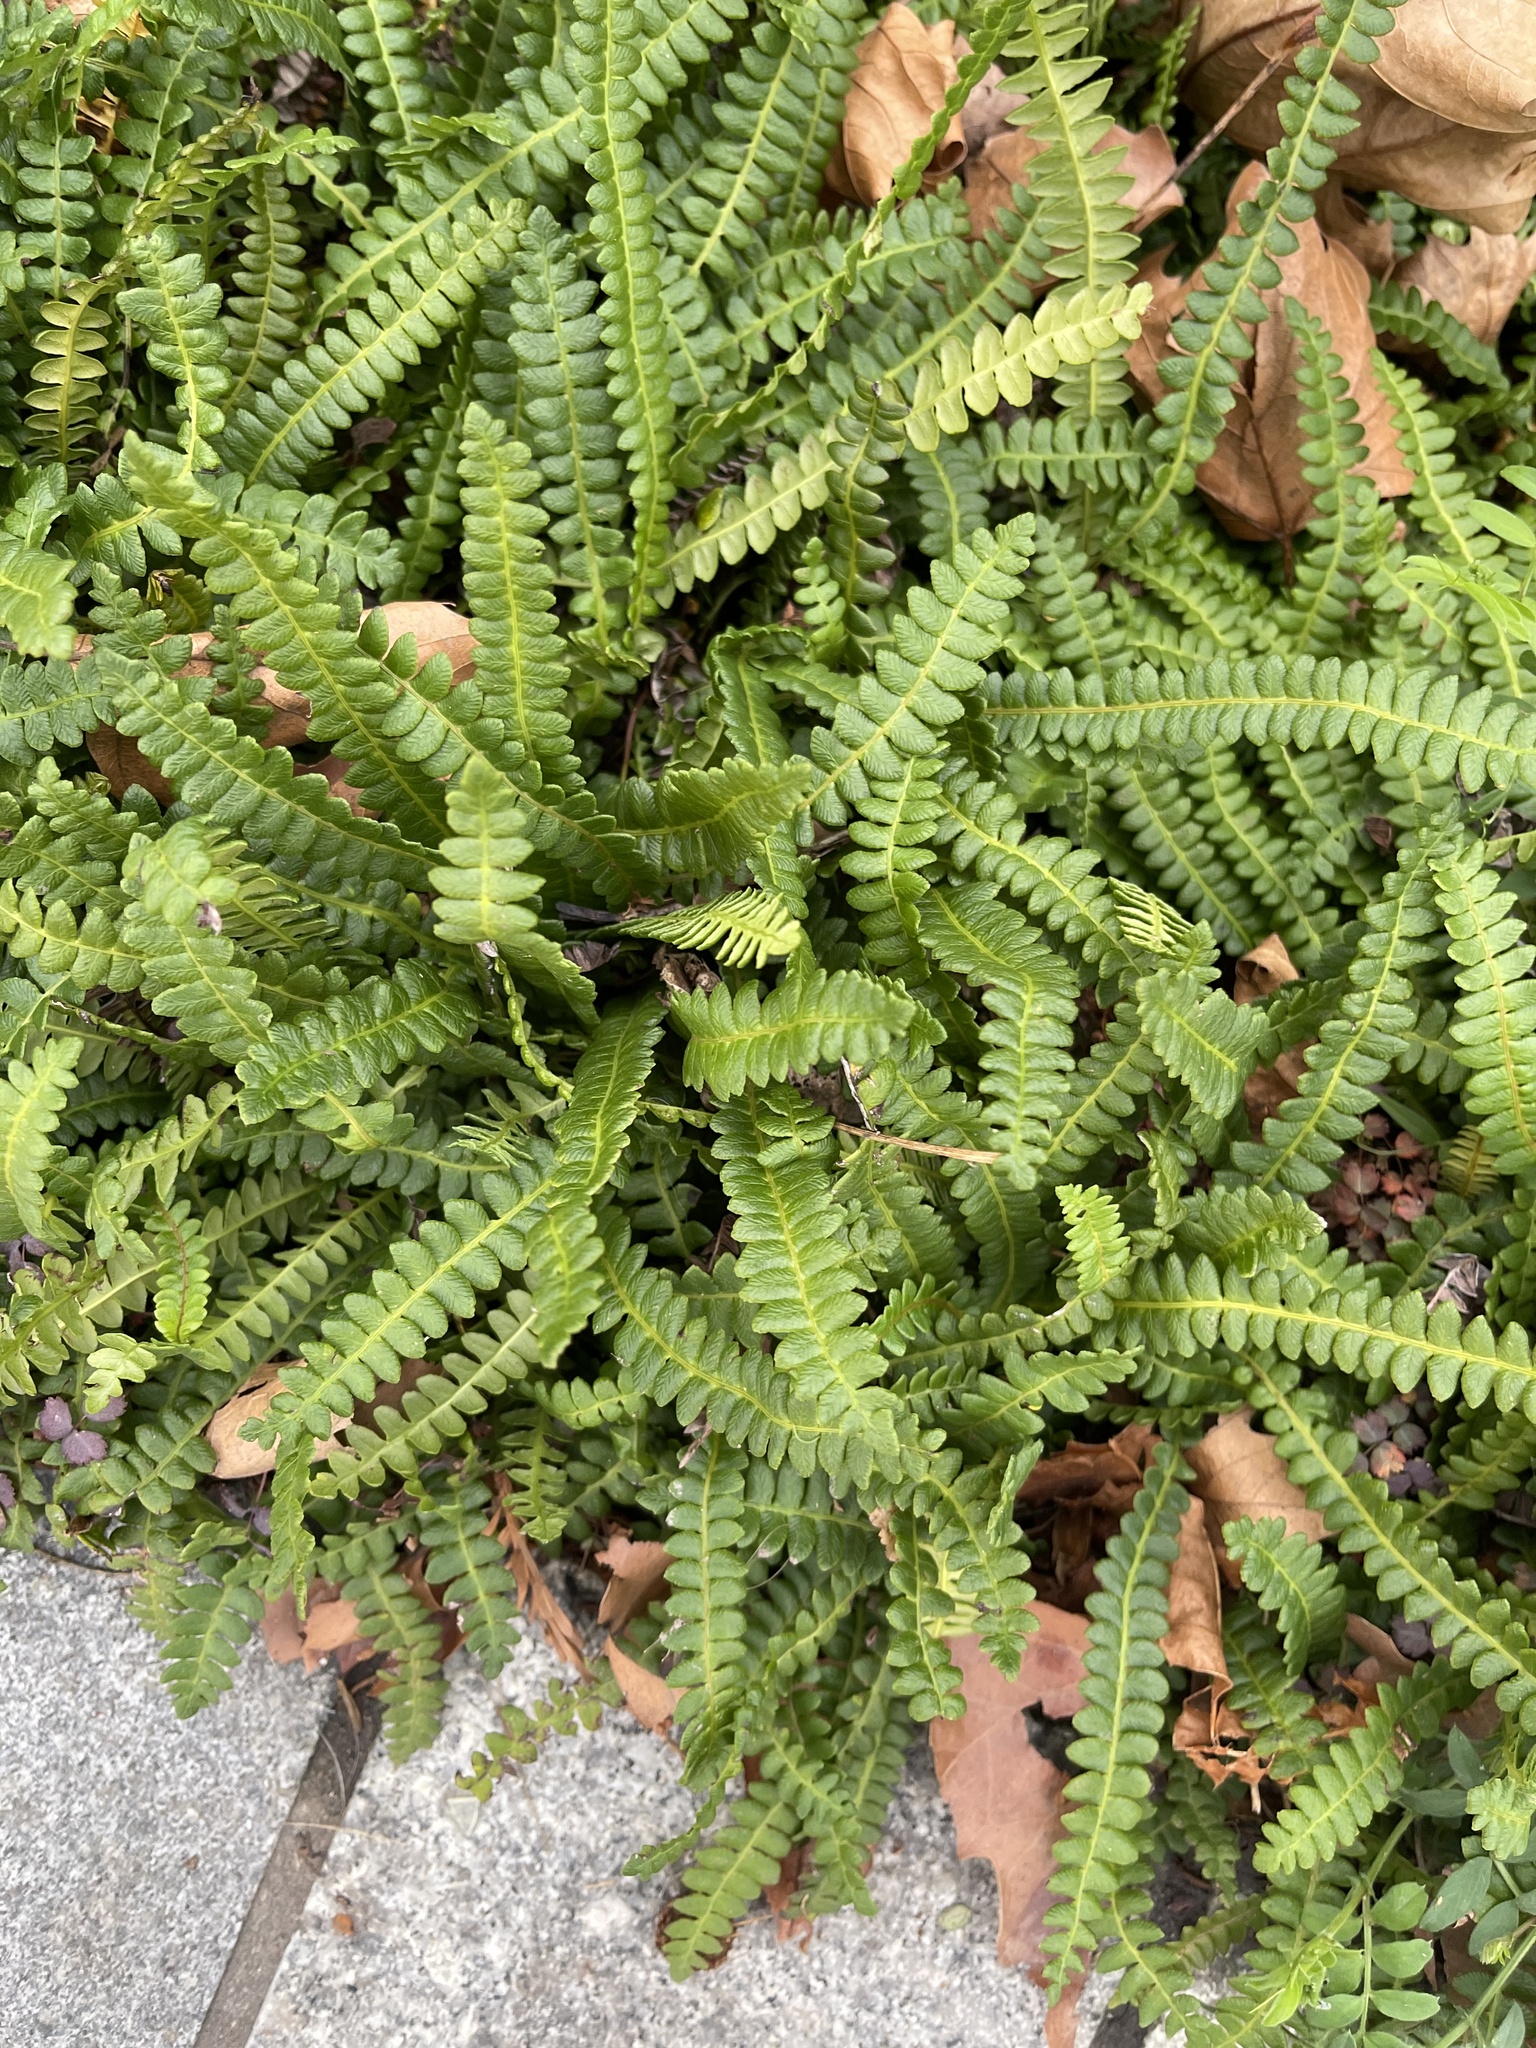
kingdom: Plantae
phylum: Tracheophyta
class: Polypodiopsida
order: Polypodiales
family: Blechnaceae
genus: Austroblechnum
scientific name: Austroblechnum penna-marina
